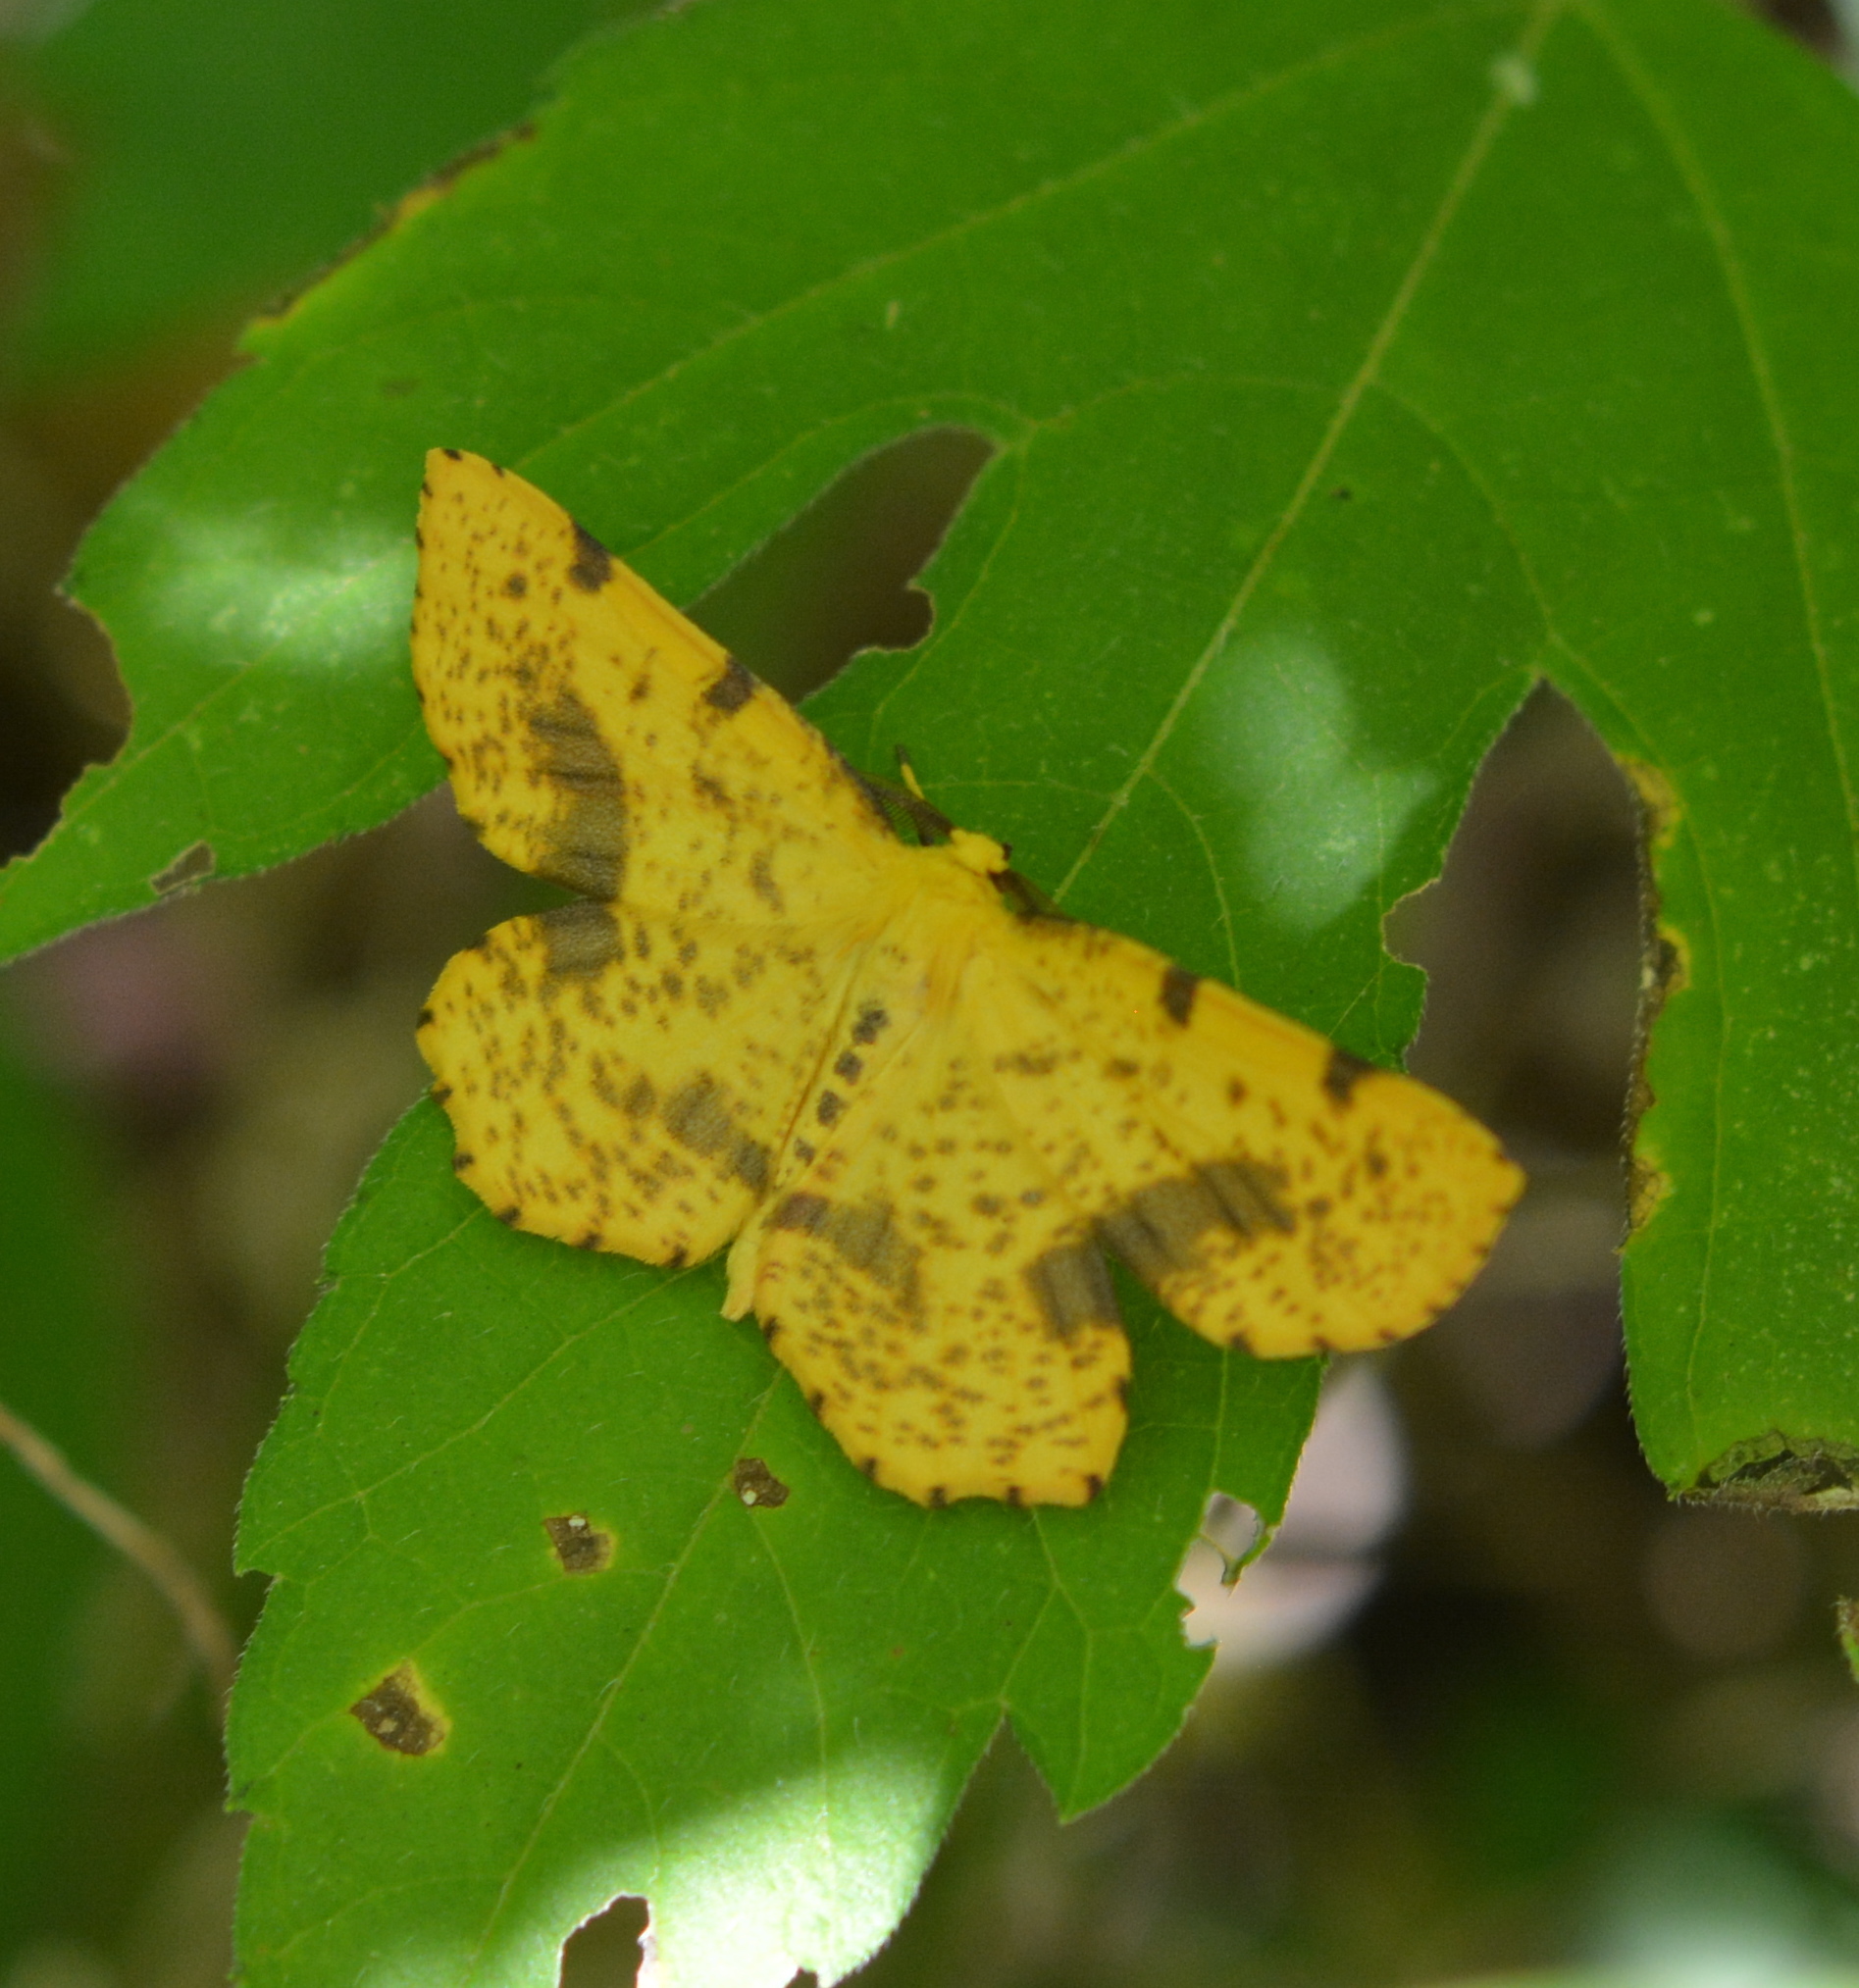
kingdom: Animalia
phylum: Arthropoda
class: Insecta
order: Lepidoptera
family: Geometridae
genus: Xanthotype
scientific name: Xanthotype
